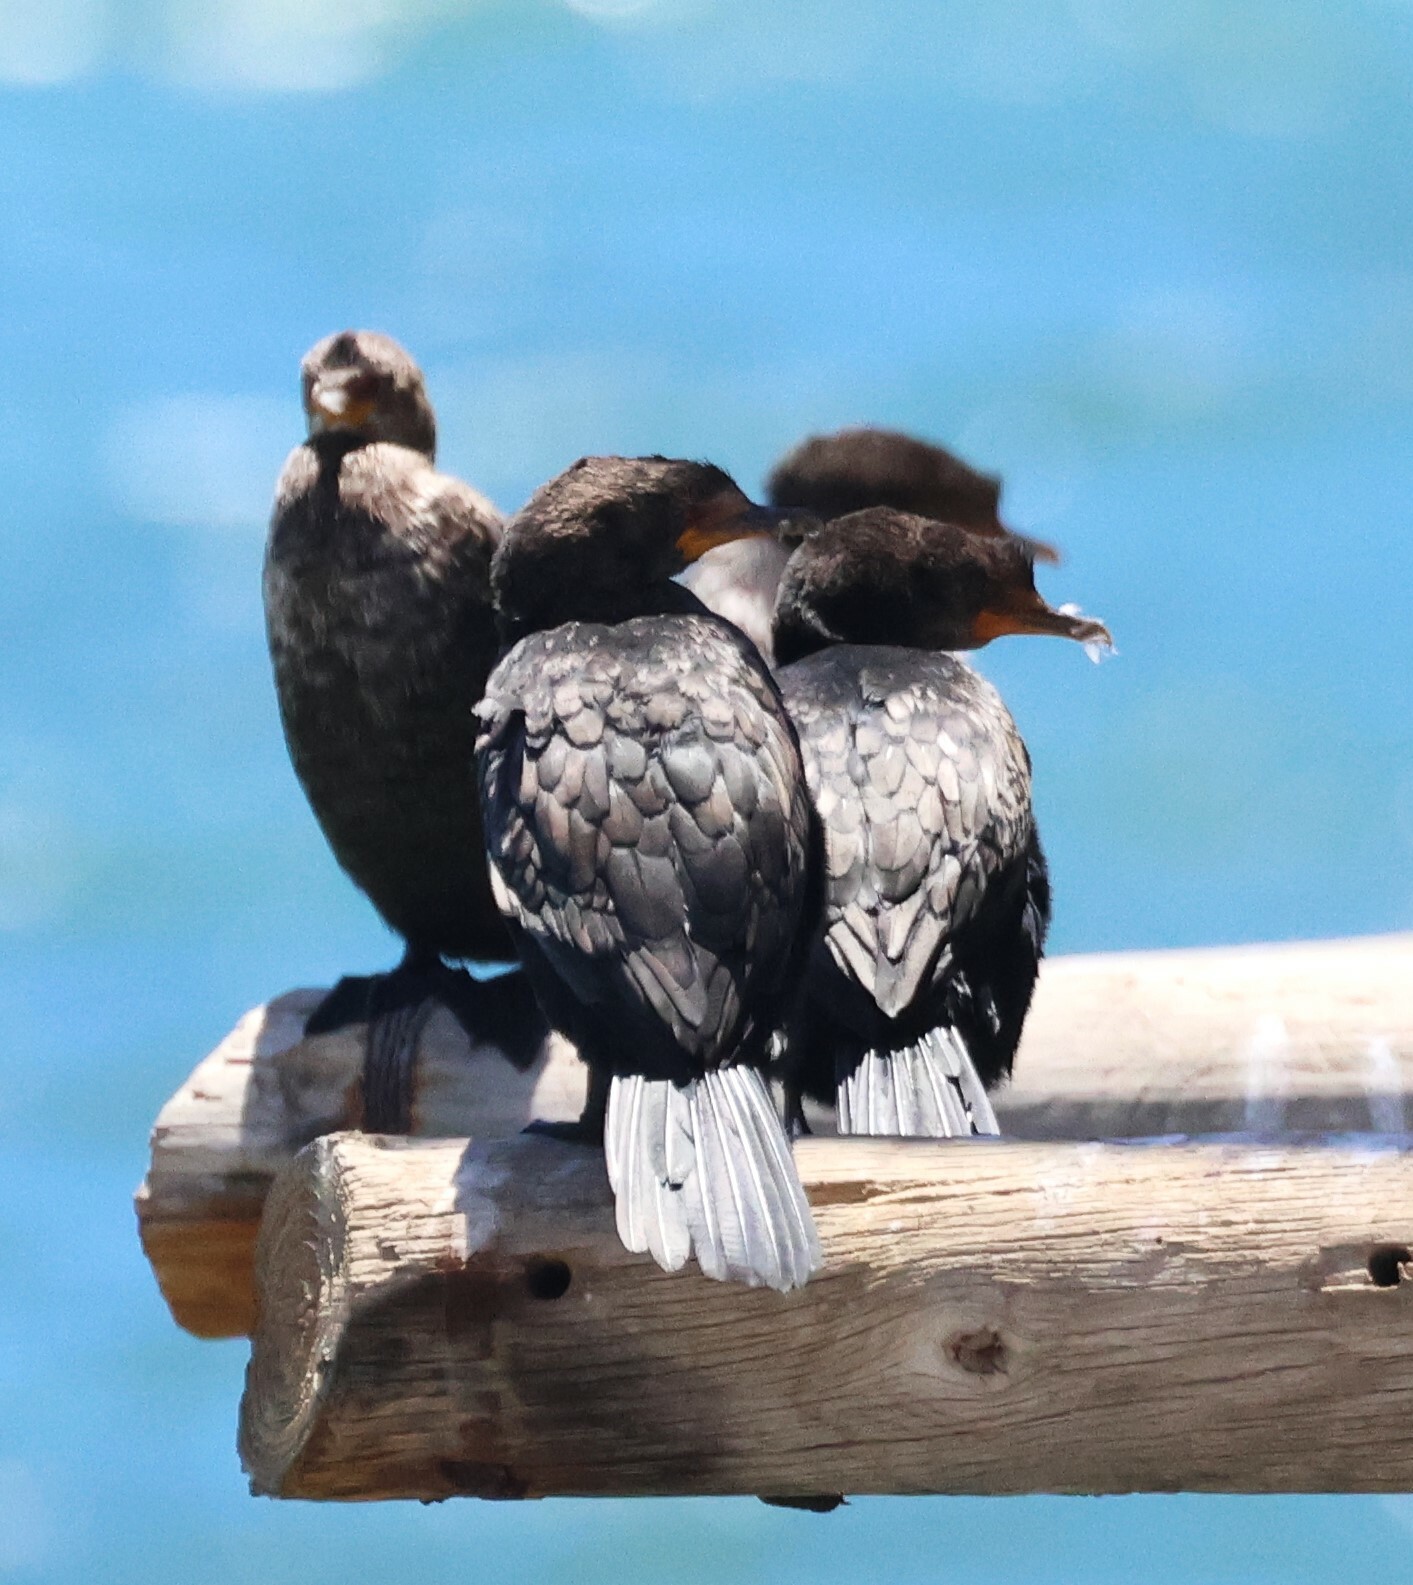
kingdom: Animalia
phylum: Chordata
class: Aves
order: Suliformes
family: Phalacrocoracidae
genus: Microcarbo
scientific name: Microcarbo coronatus
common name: Crowned cormorant
